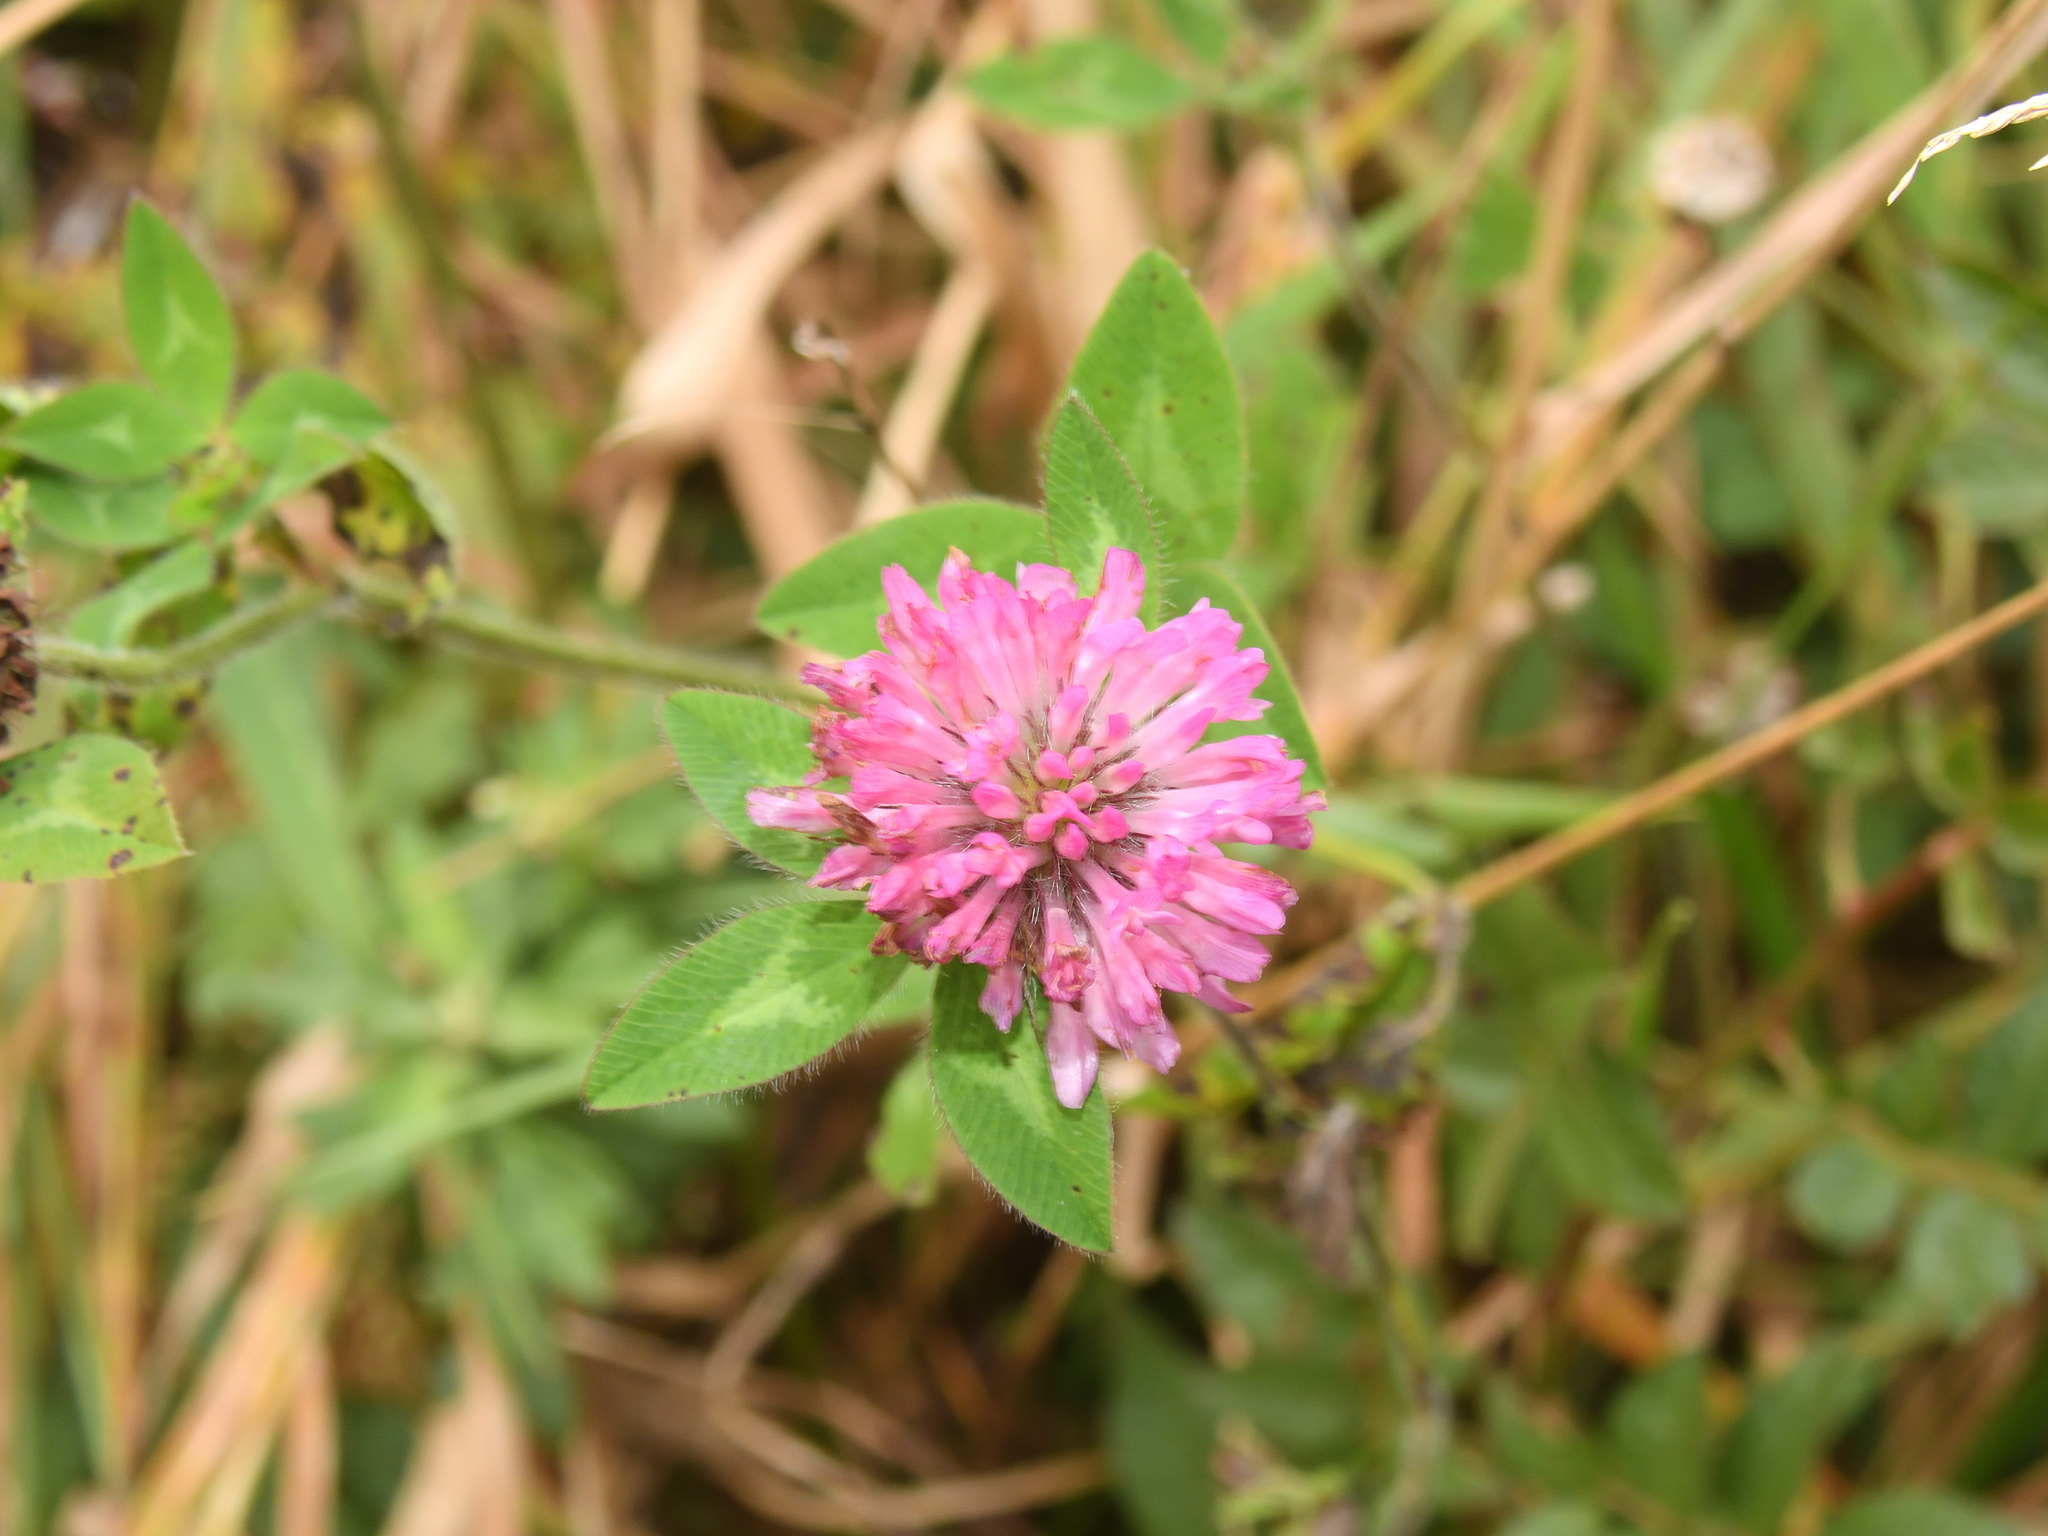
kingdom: Plantae
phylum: Tracheophyta
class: Magnoliopsida
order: Fabales
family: Fabaceae
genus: Trifolium
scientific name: Trifolium pratense
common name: Red clover
